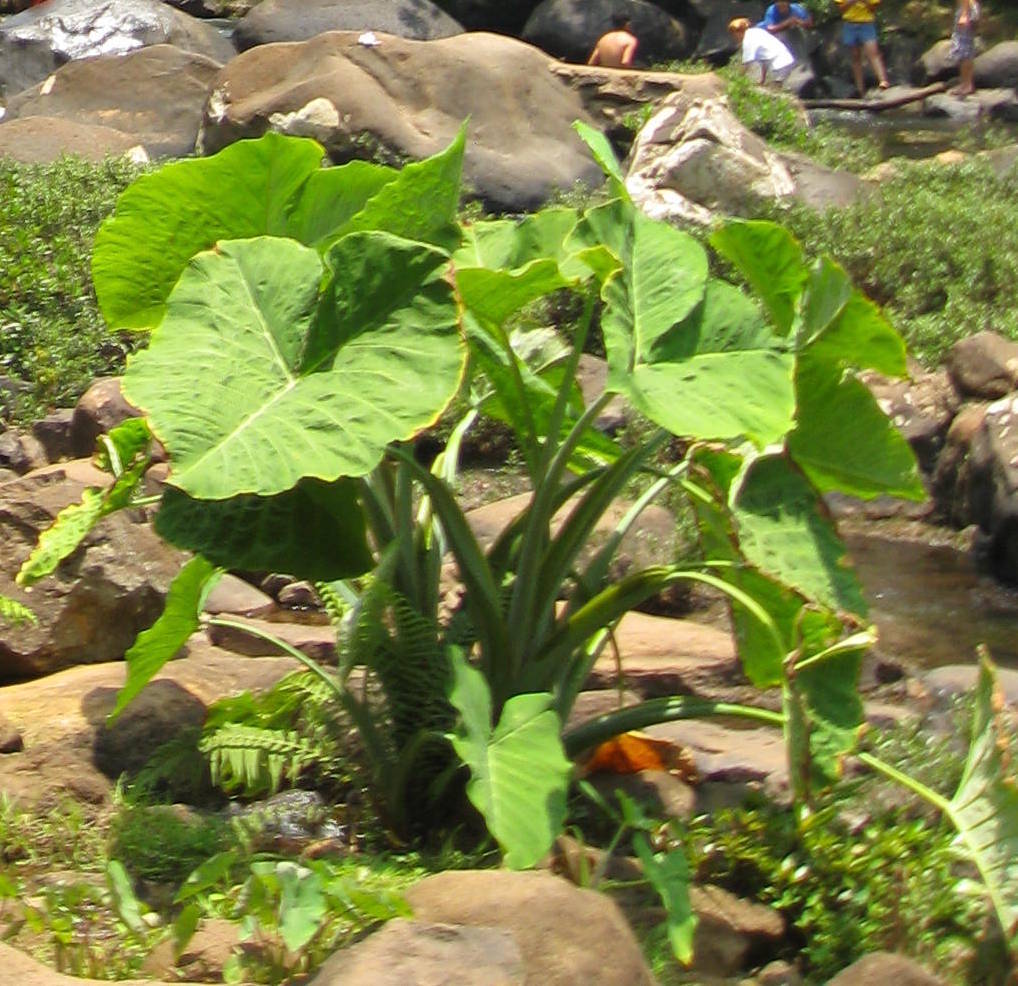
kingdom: Plantae
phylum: Tracheophyta
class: Liliopsida
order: Alismatales
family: Araceae
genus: Xanthosoma
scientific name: Xanthosoma robustum
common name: Capote
